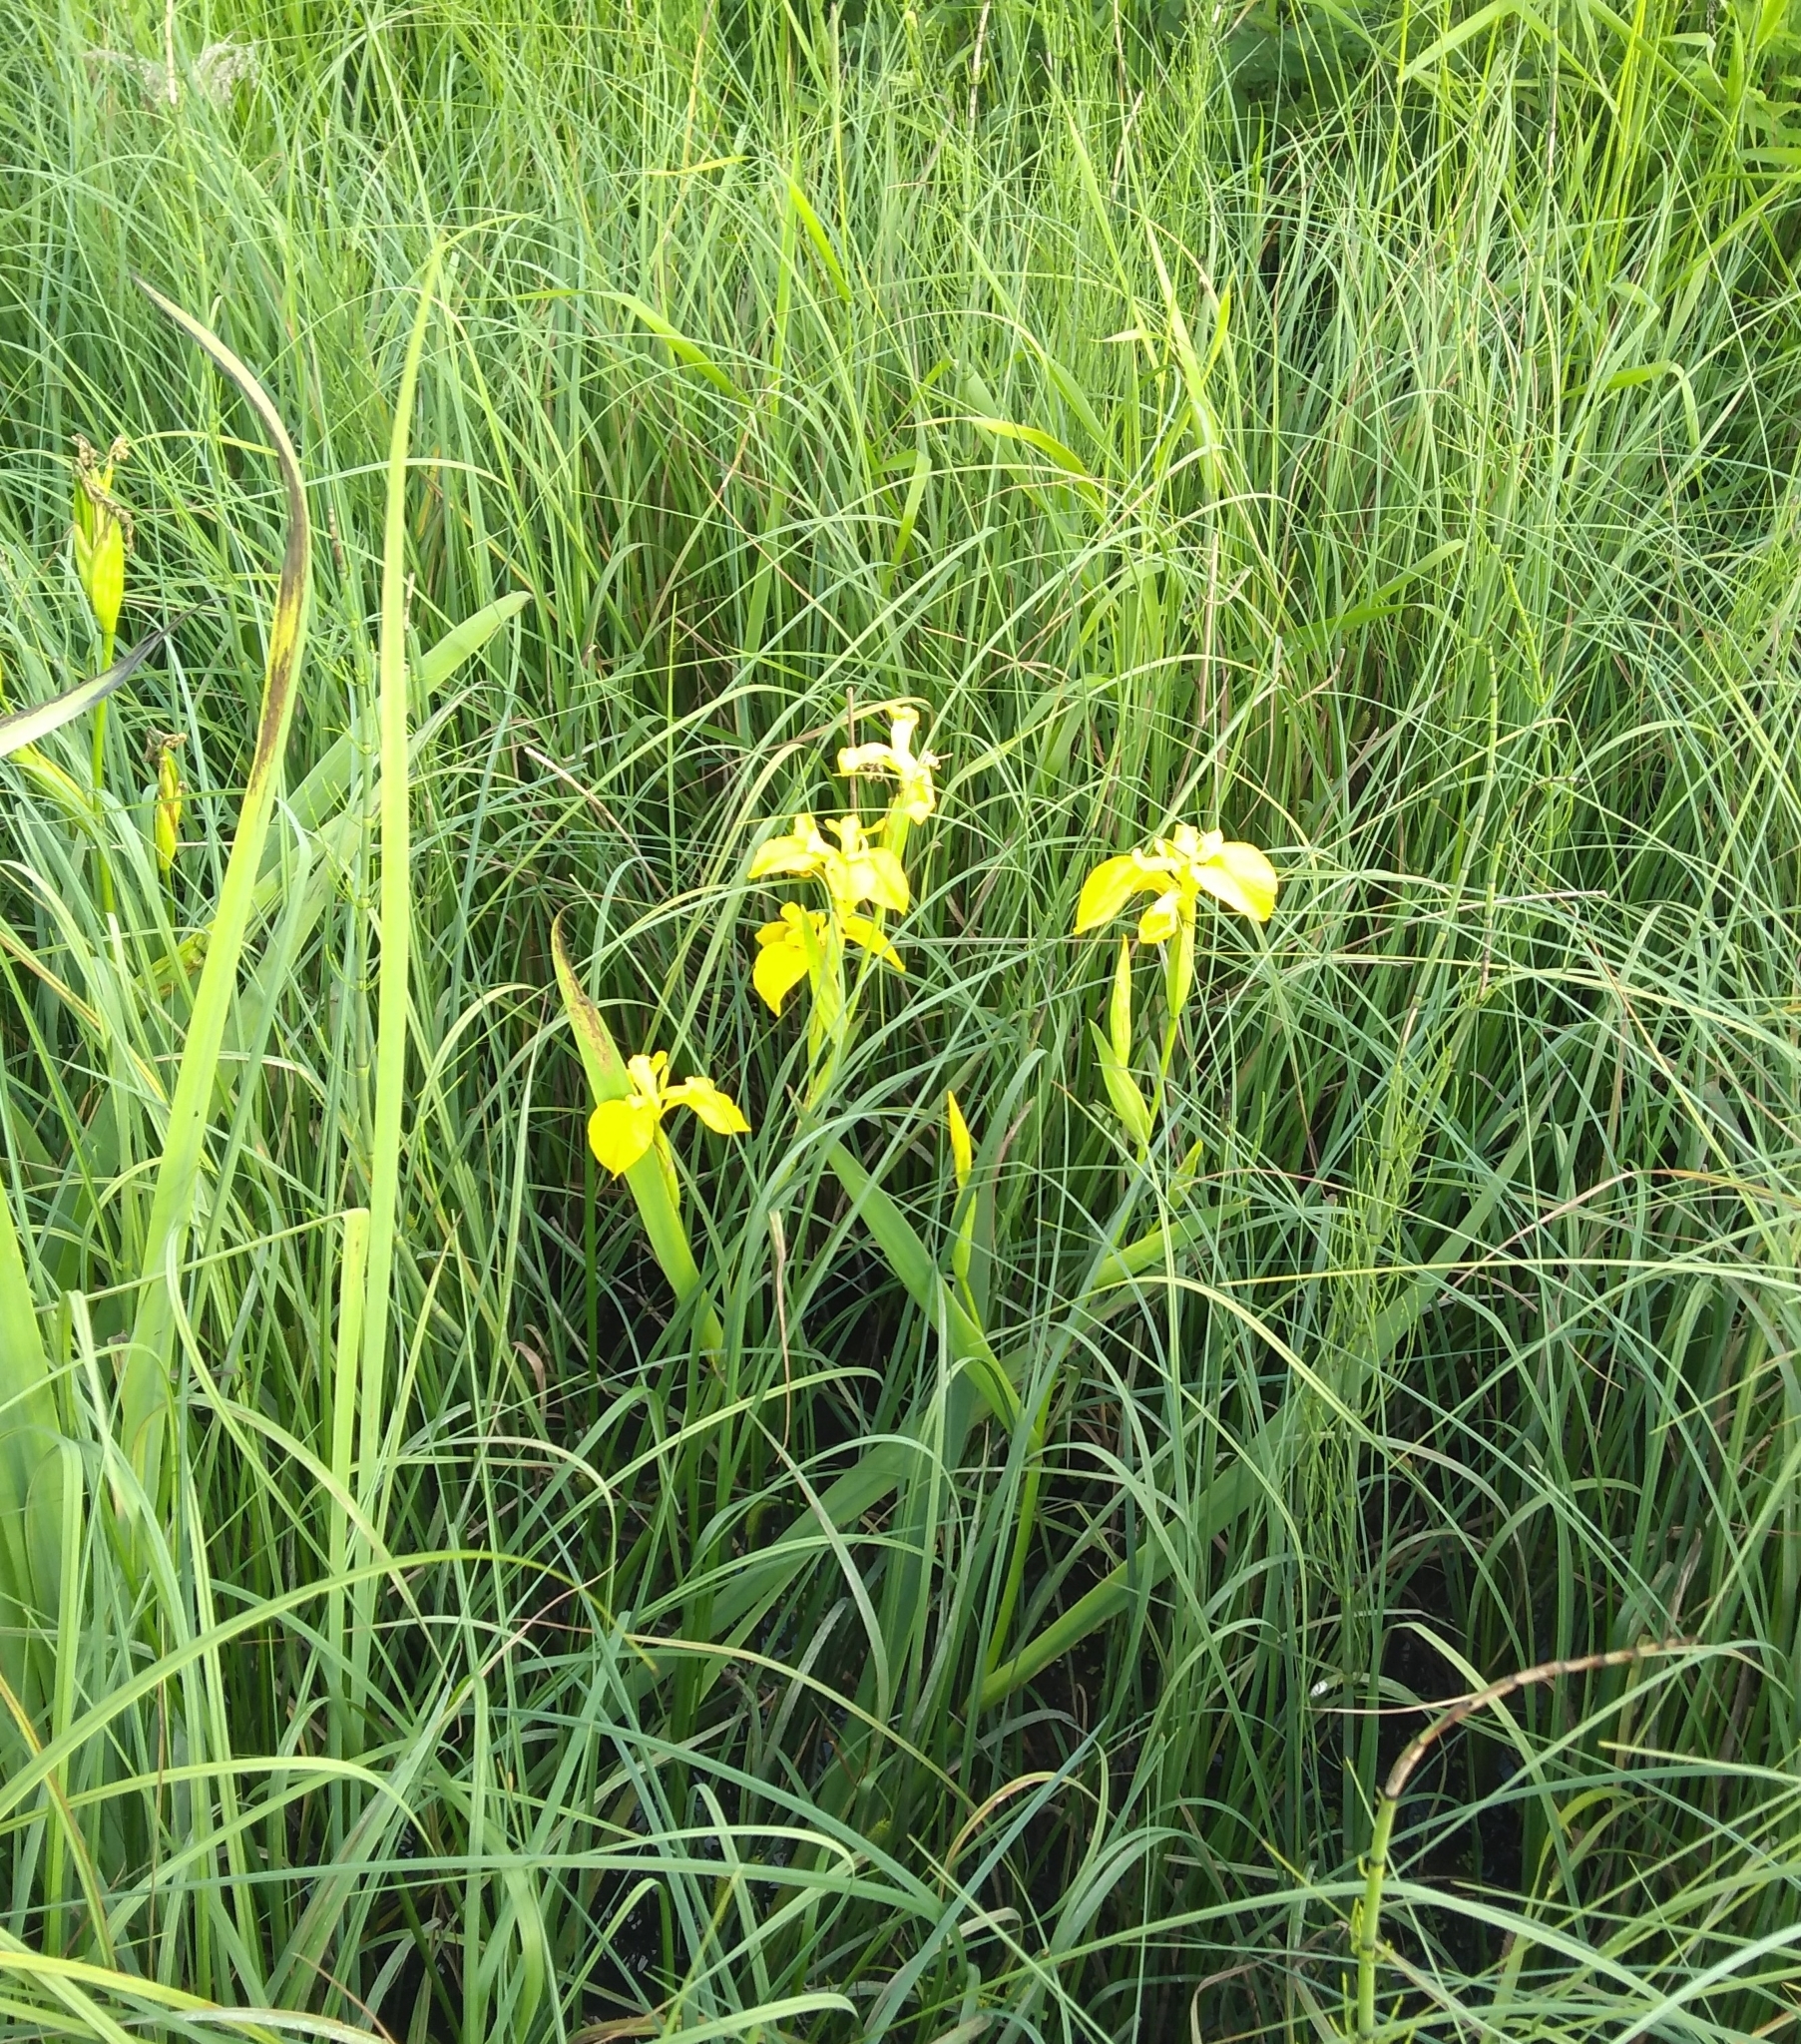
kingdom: Plantae
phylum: Tracheophyta
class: Liliopsida
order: Asparagales
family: Iridaceae
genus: Iris
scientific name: Iris pseudacorus
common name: Yellow flag
